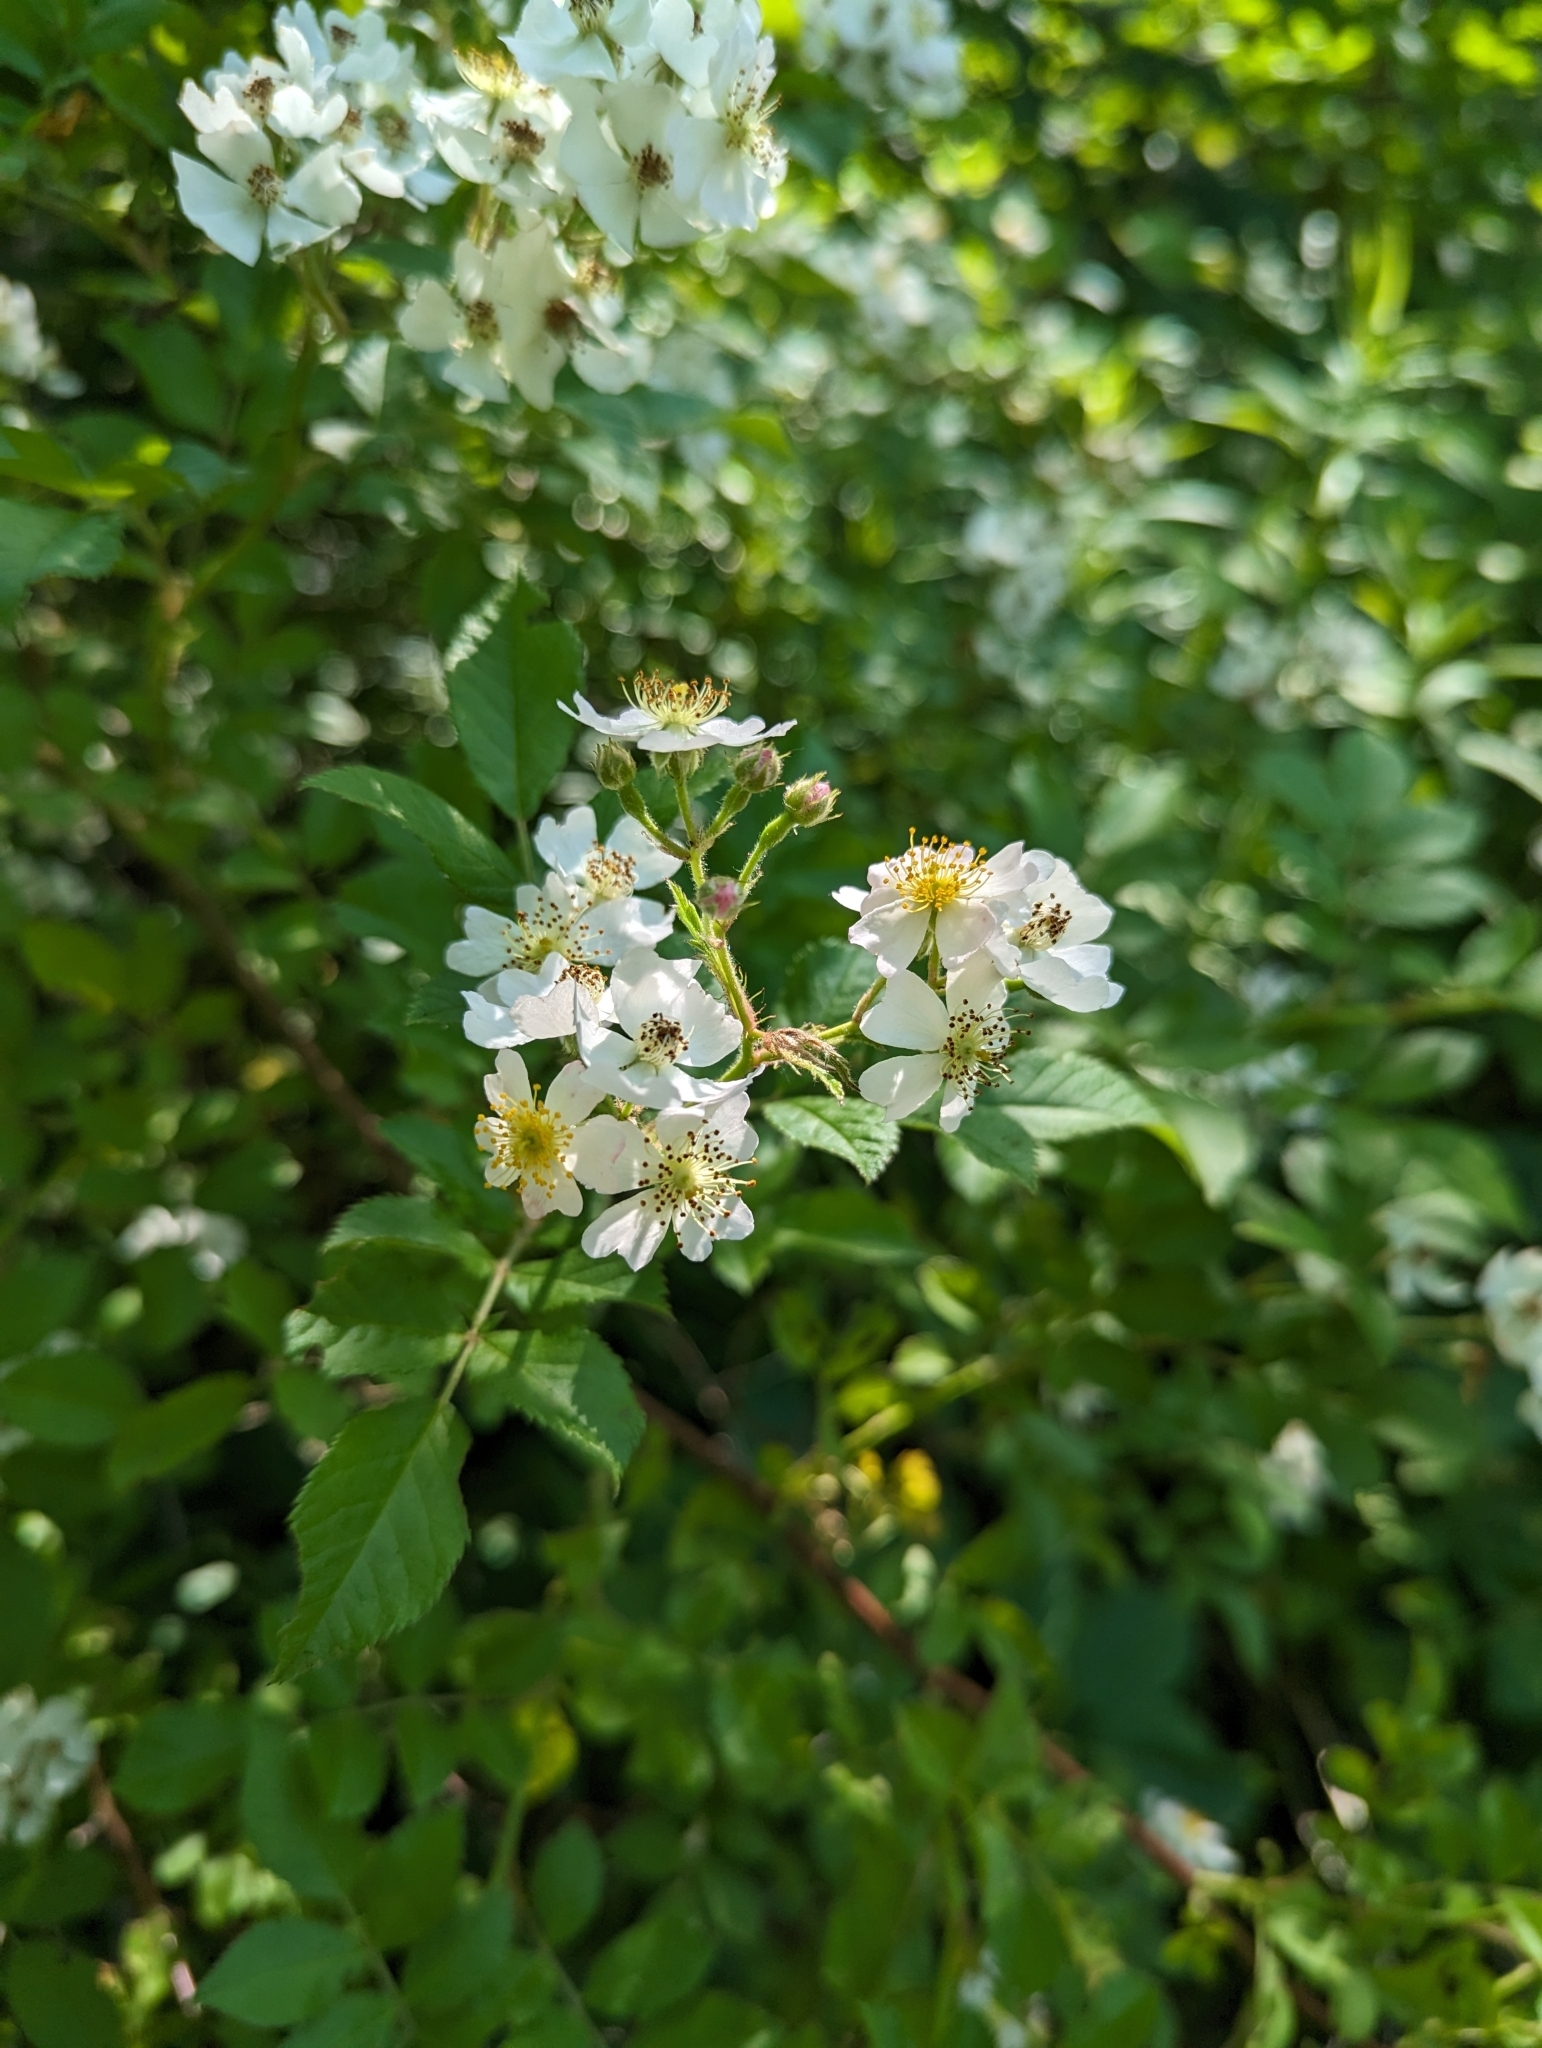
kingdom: Plantae
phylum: Tracheophyta
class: Magnoliopsida
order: Rosales
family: Rosaceae
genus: Rosa
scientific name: Rosa multiflora
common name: Multiflora rose
